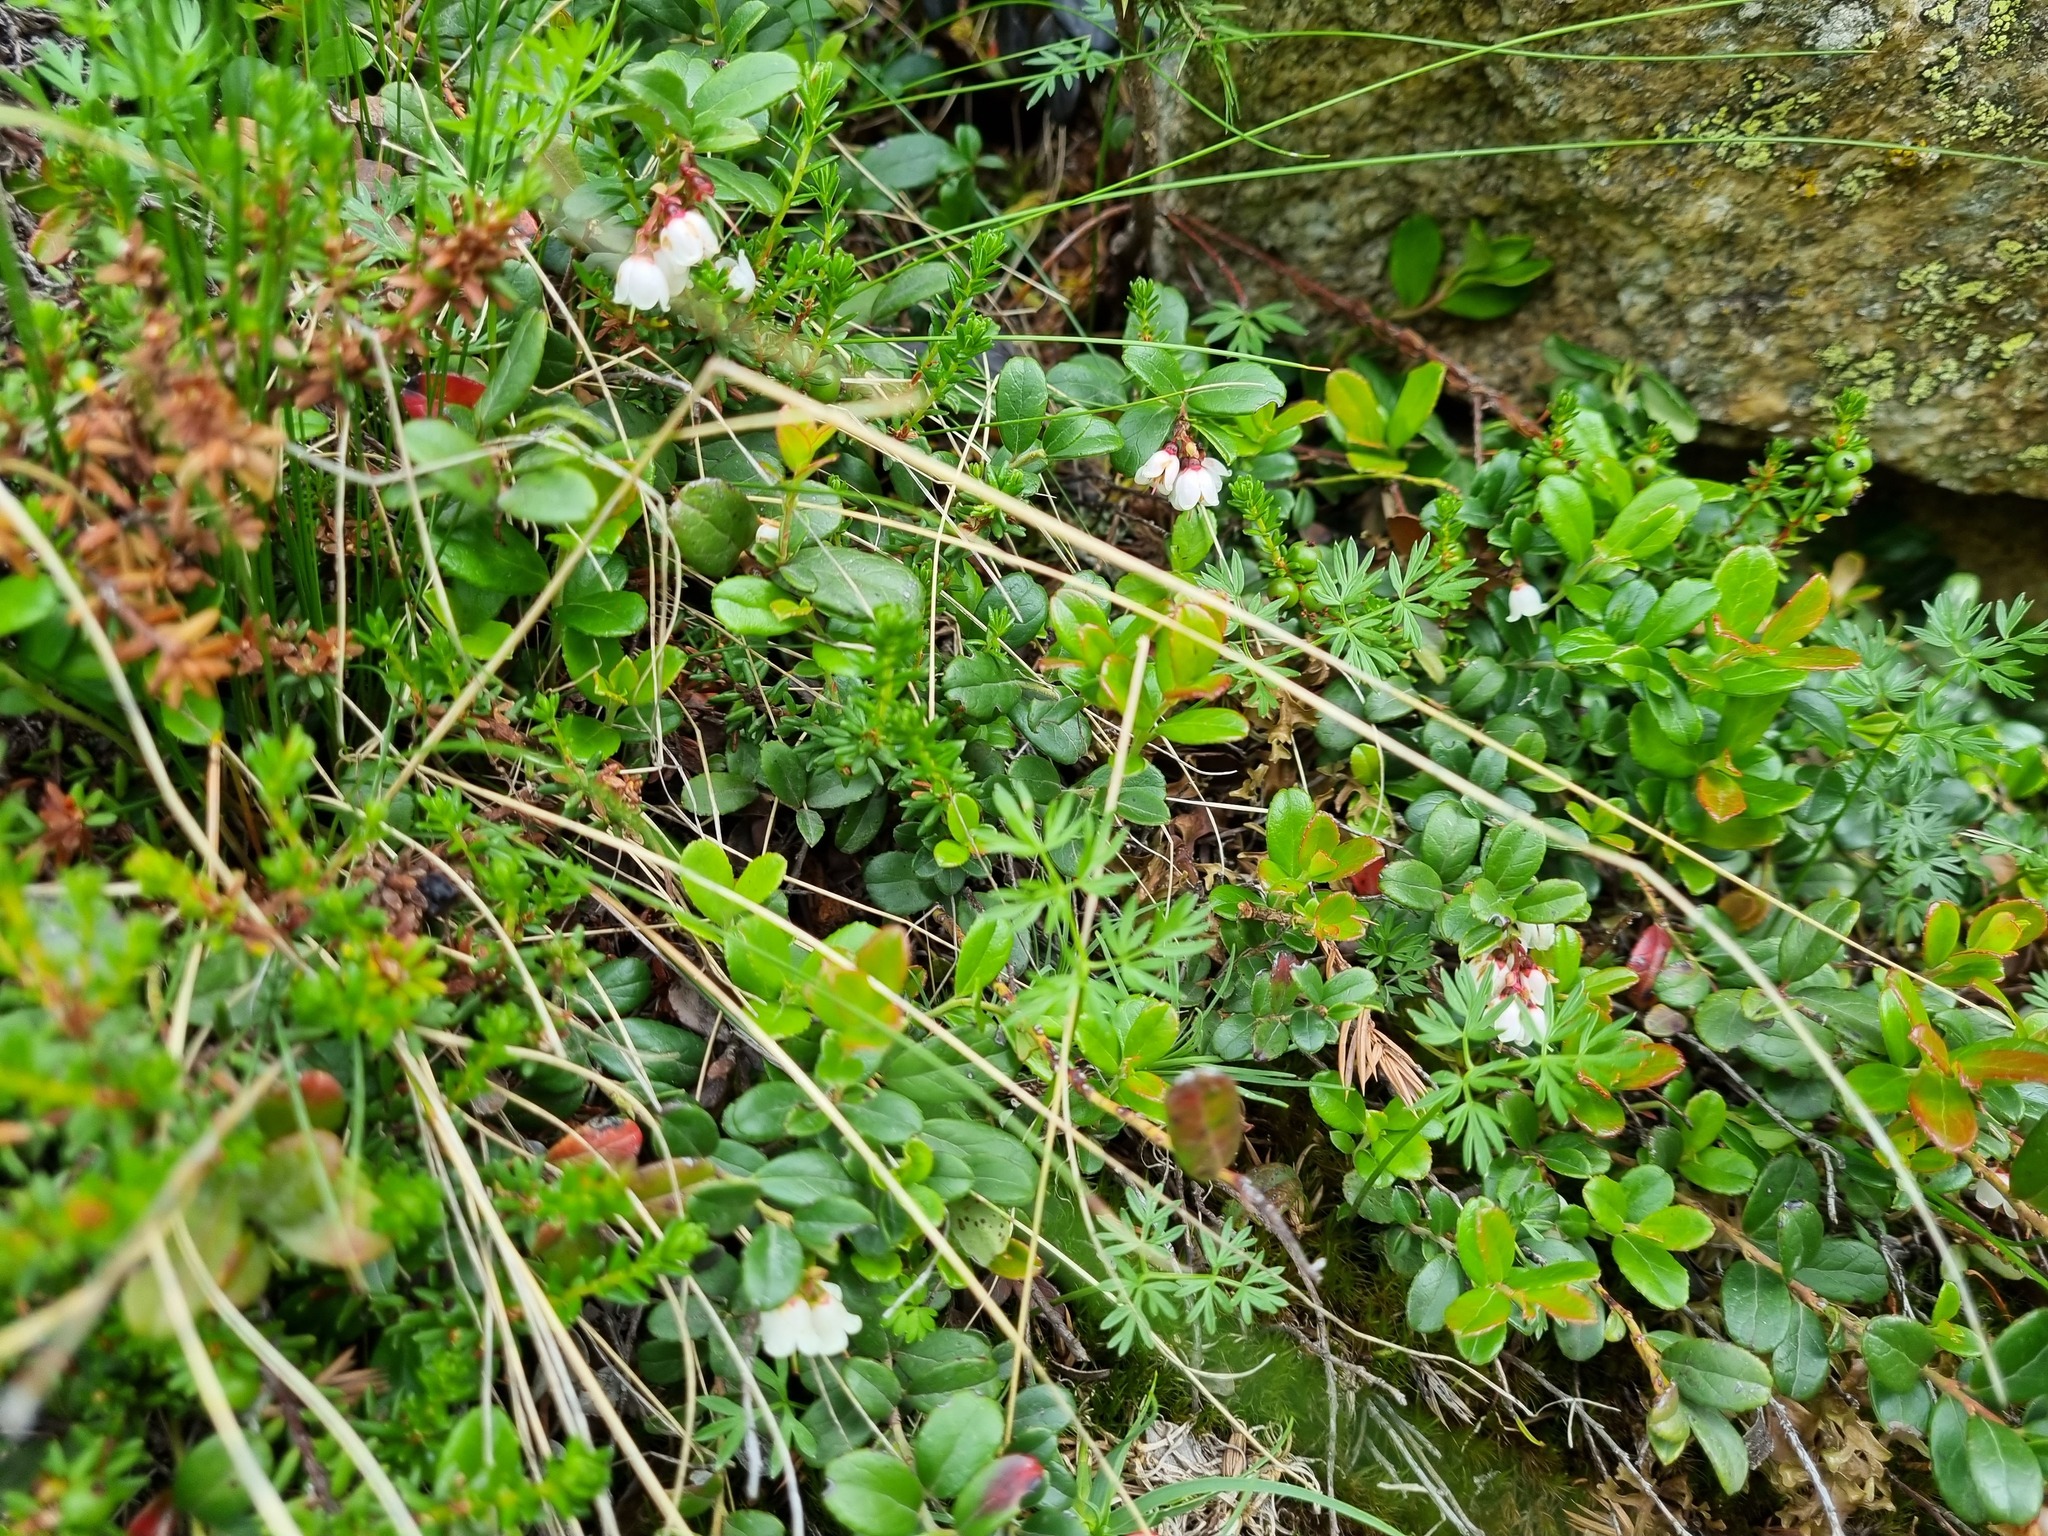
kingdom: Plantae
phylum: Tracheophyta
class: Magnoliopsida
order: Ericales
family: Ericaceae
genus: Vaccinium
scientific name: Vaccinium vitis-idaea
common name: Cowberry
